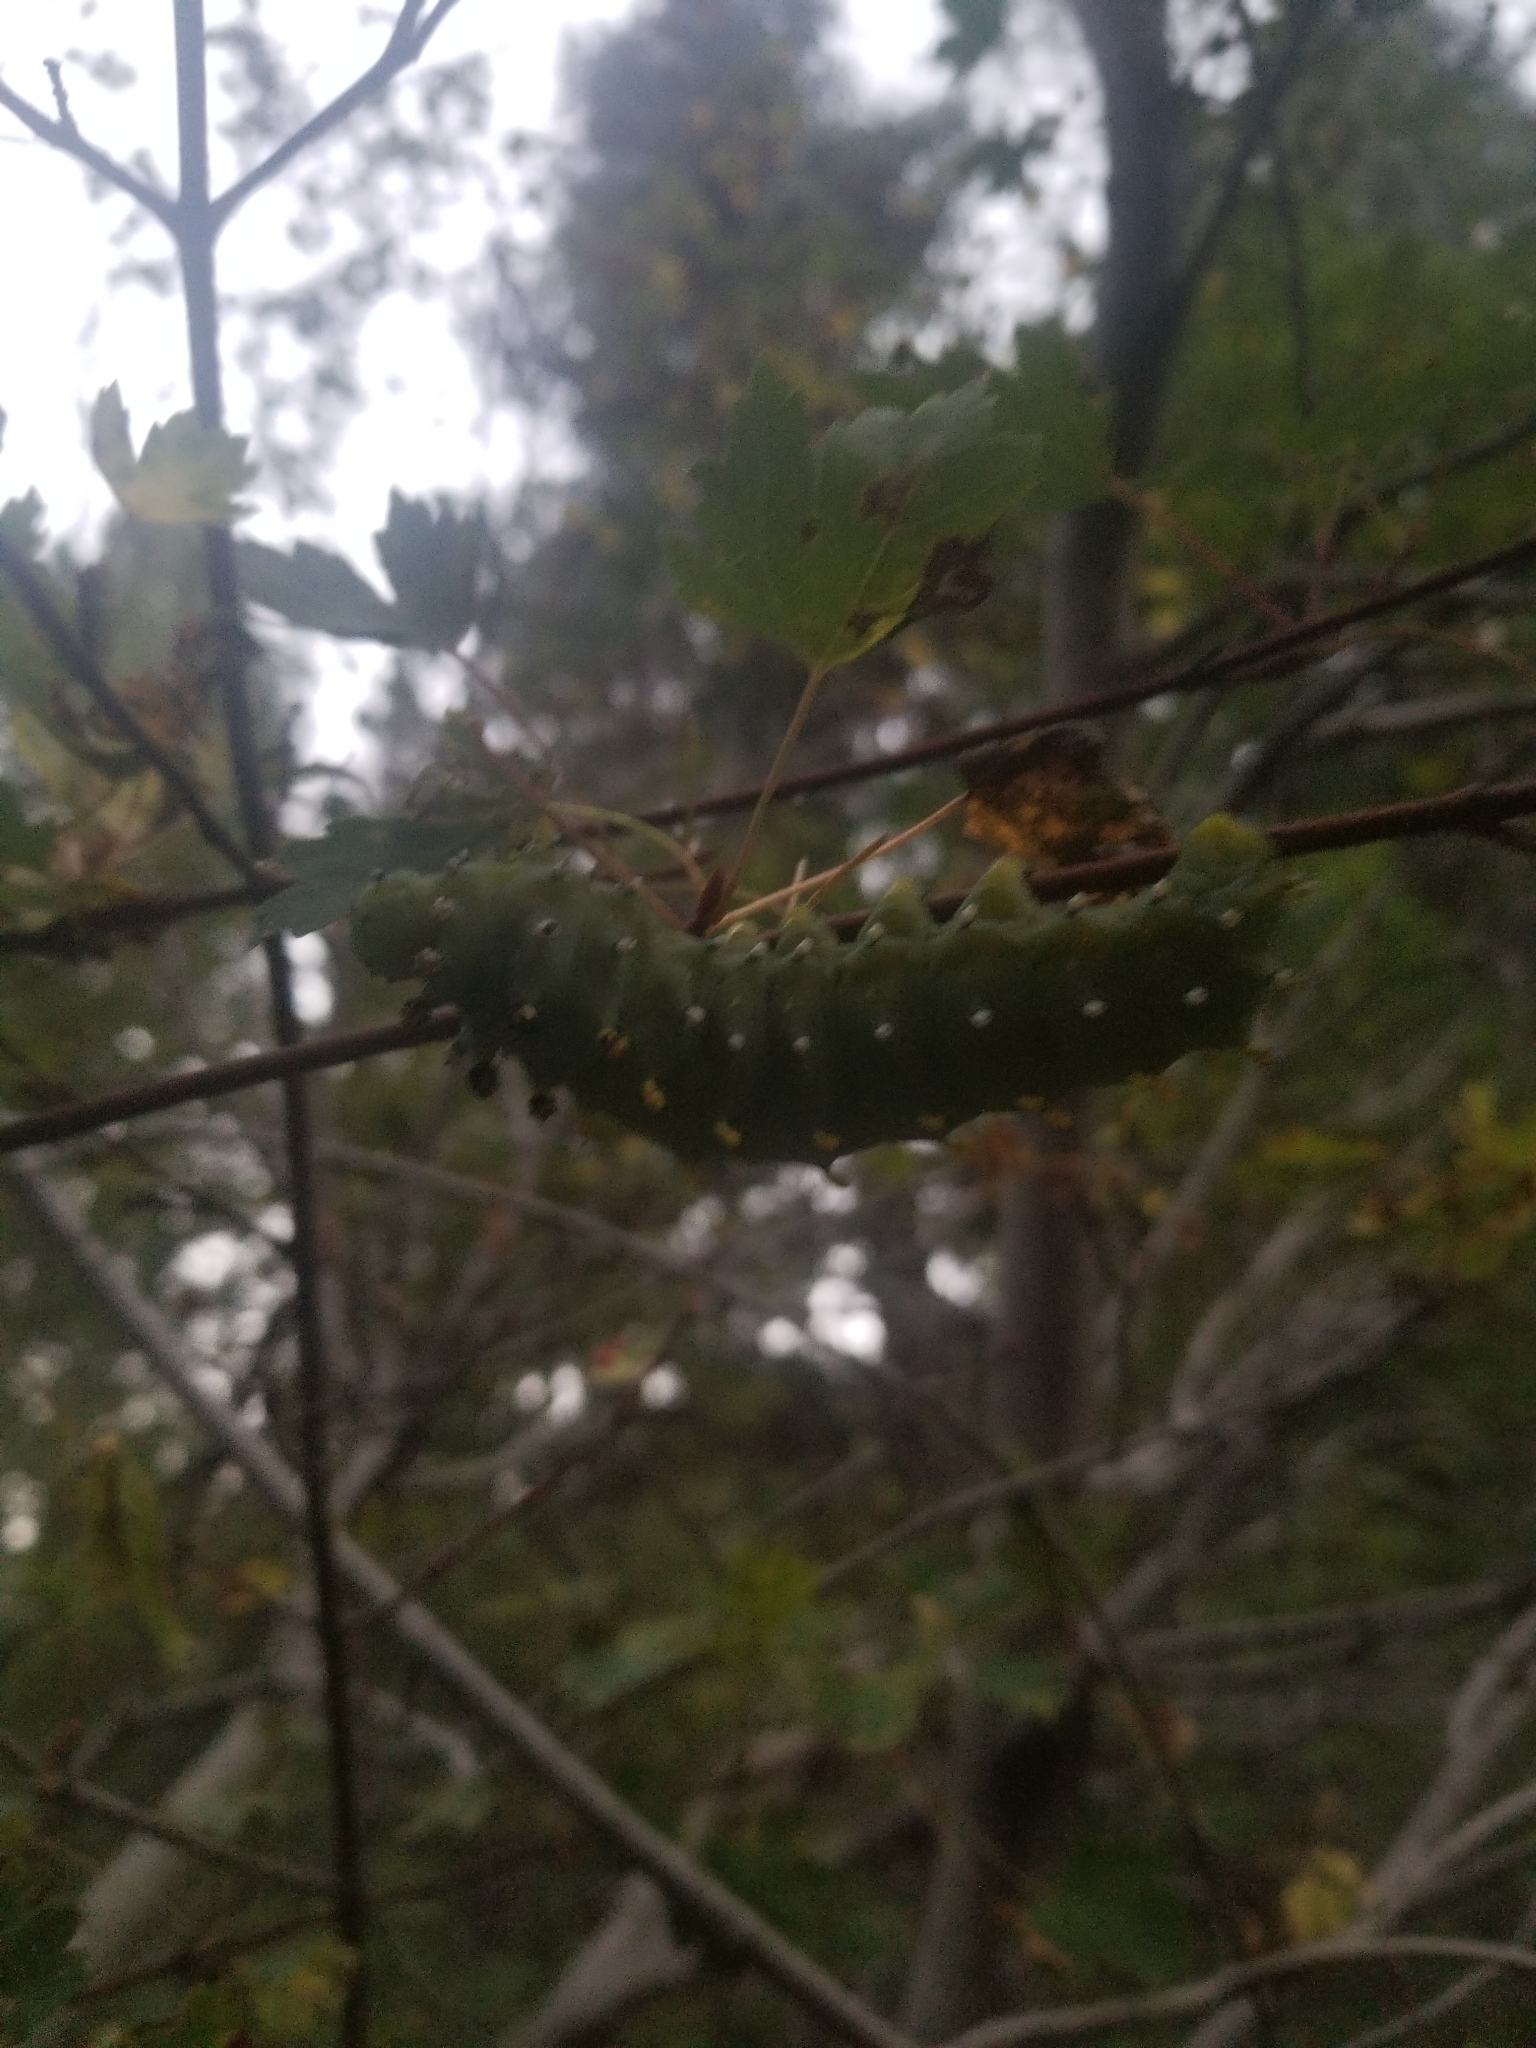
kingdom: Animalia
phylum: Arthropoda
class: Insecta
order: Lepidoptera
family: Saturniidae
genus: Hyalophora
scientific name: Hyalophora gloveri
